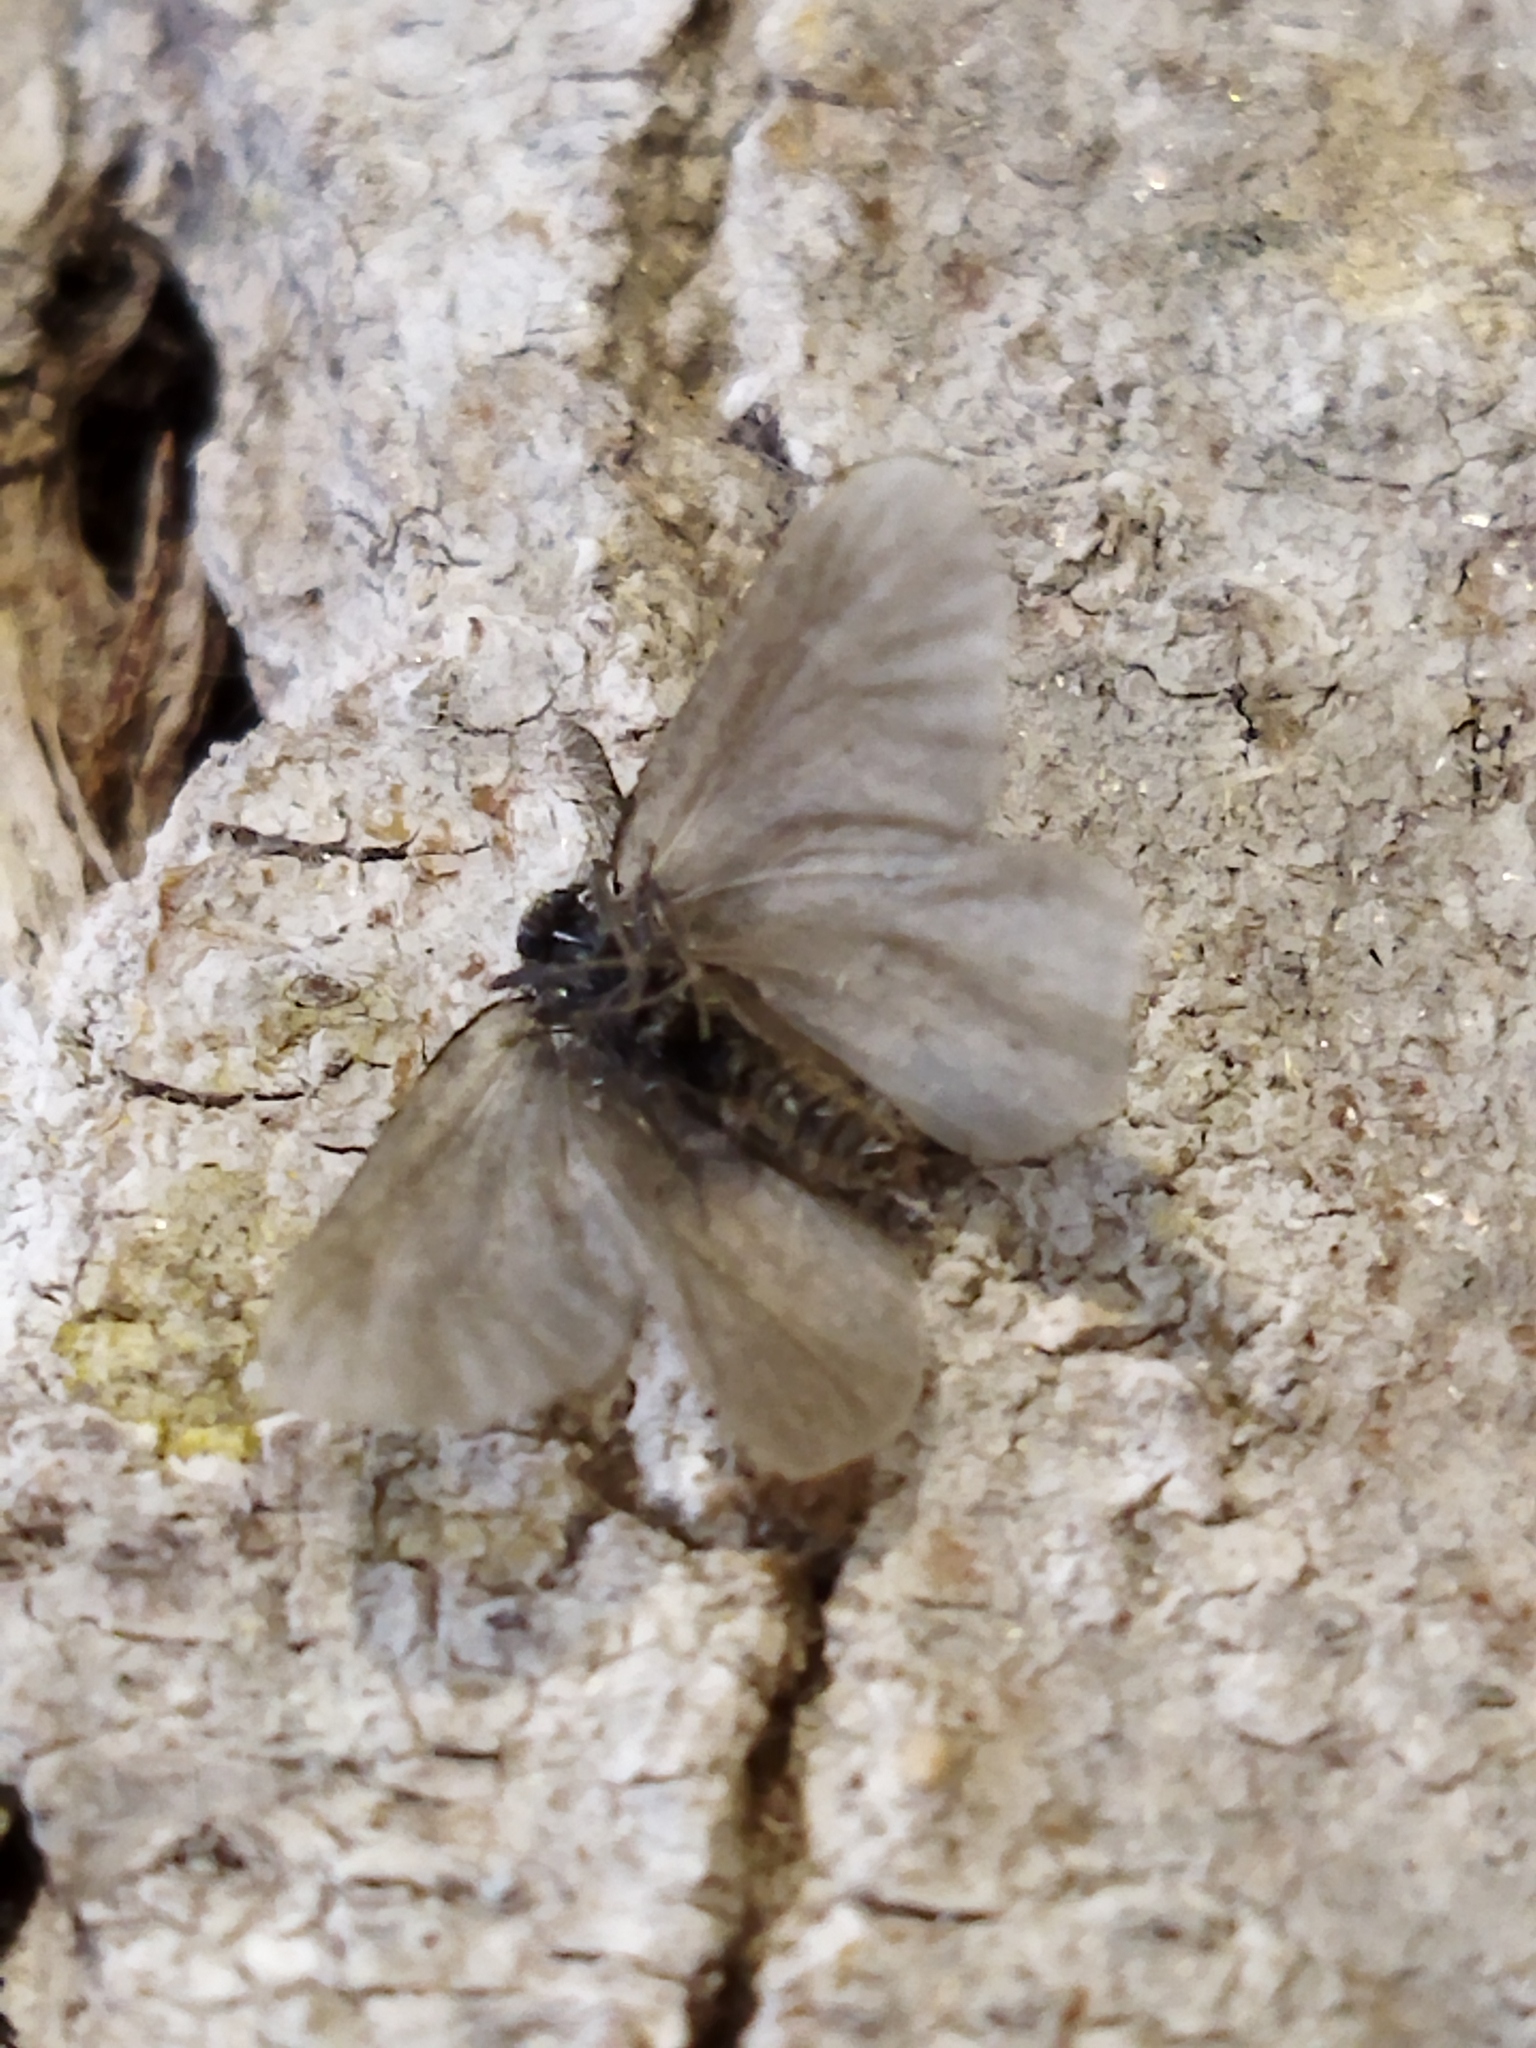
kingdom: Animalia
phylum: Arthropoda
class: Insecta
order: Lepidoptera
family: Psychidae
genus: Rebelia
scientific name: Rebelia perlucidella
